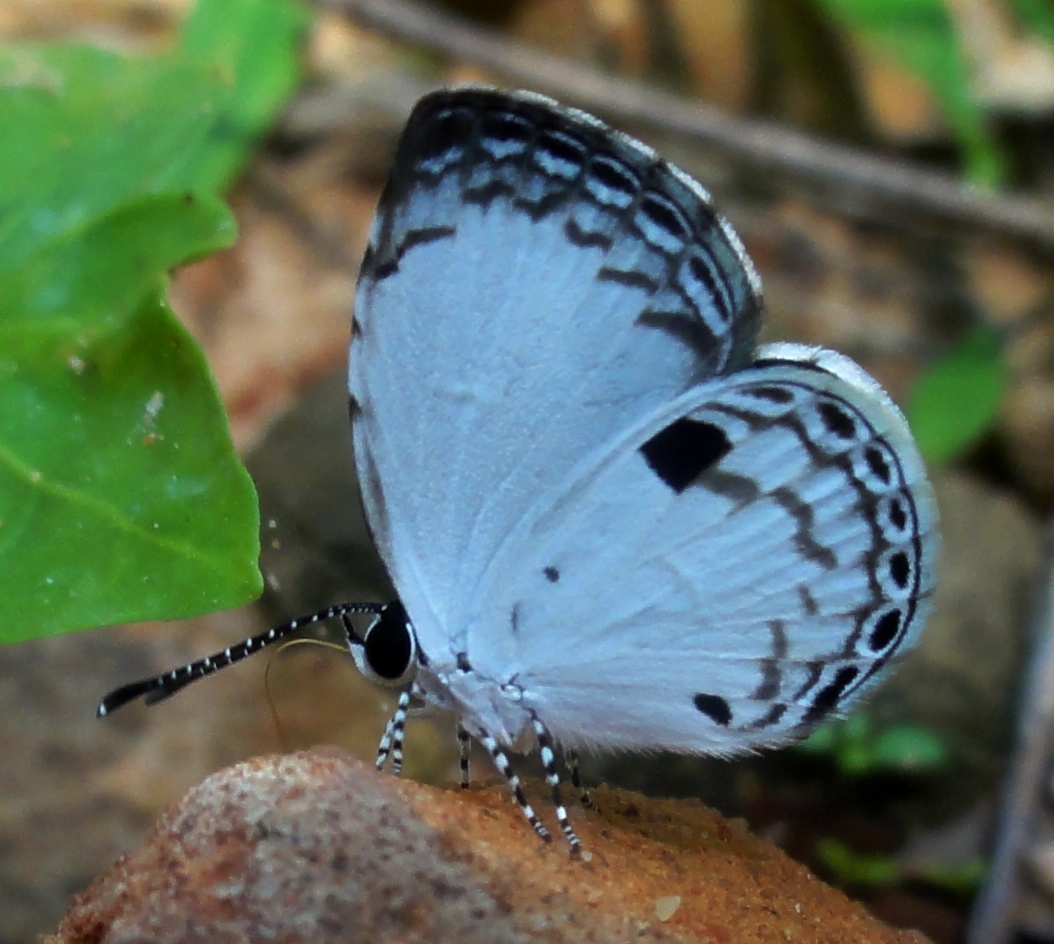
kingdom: Animalia
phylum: Arthropoda
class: Insecta
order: Lepidoptera
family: Lycaenidae
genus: Neopithecops
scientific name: Neopithecops zalmora
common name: Quaker
